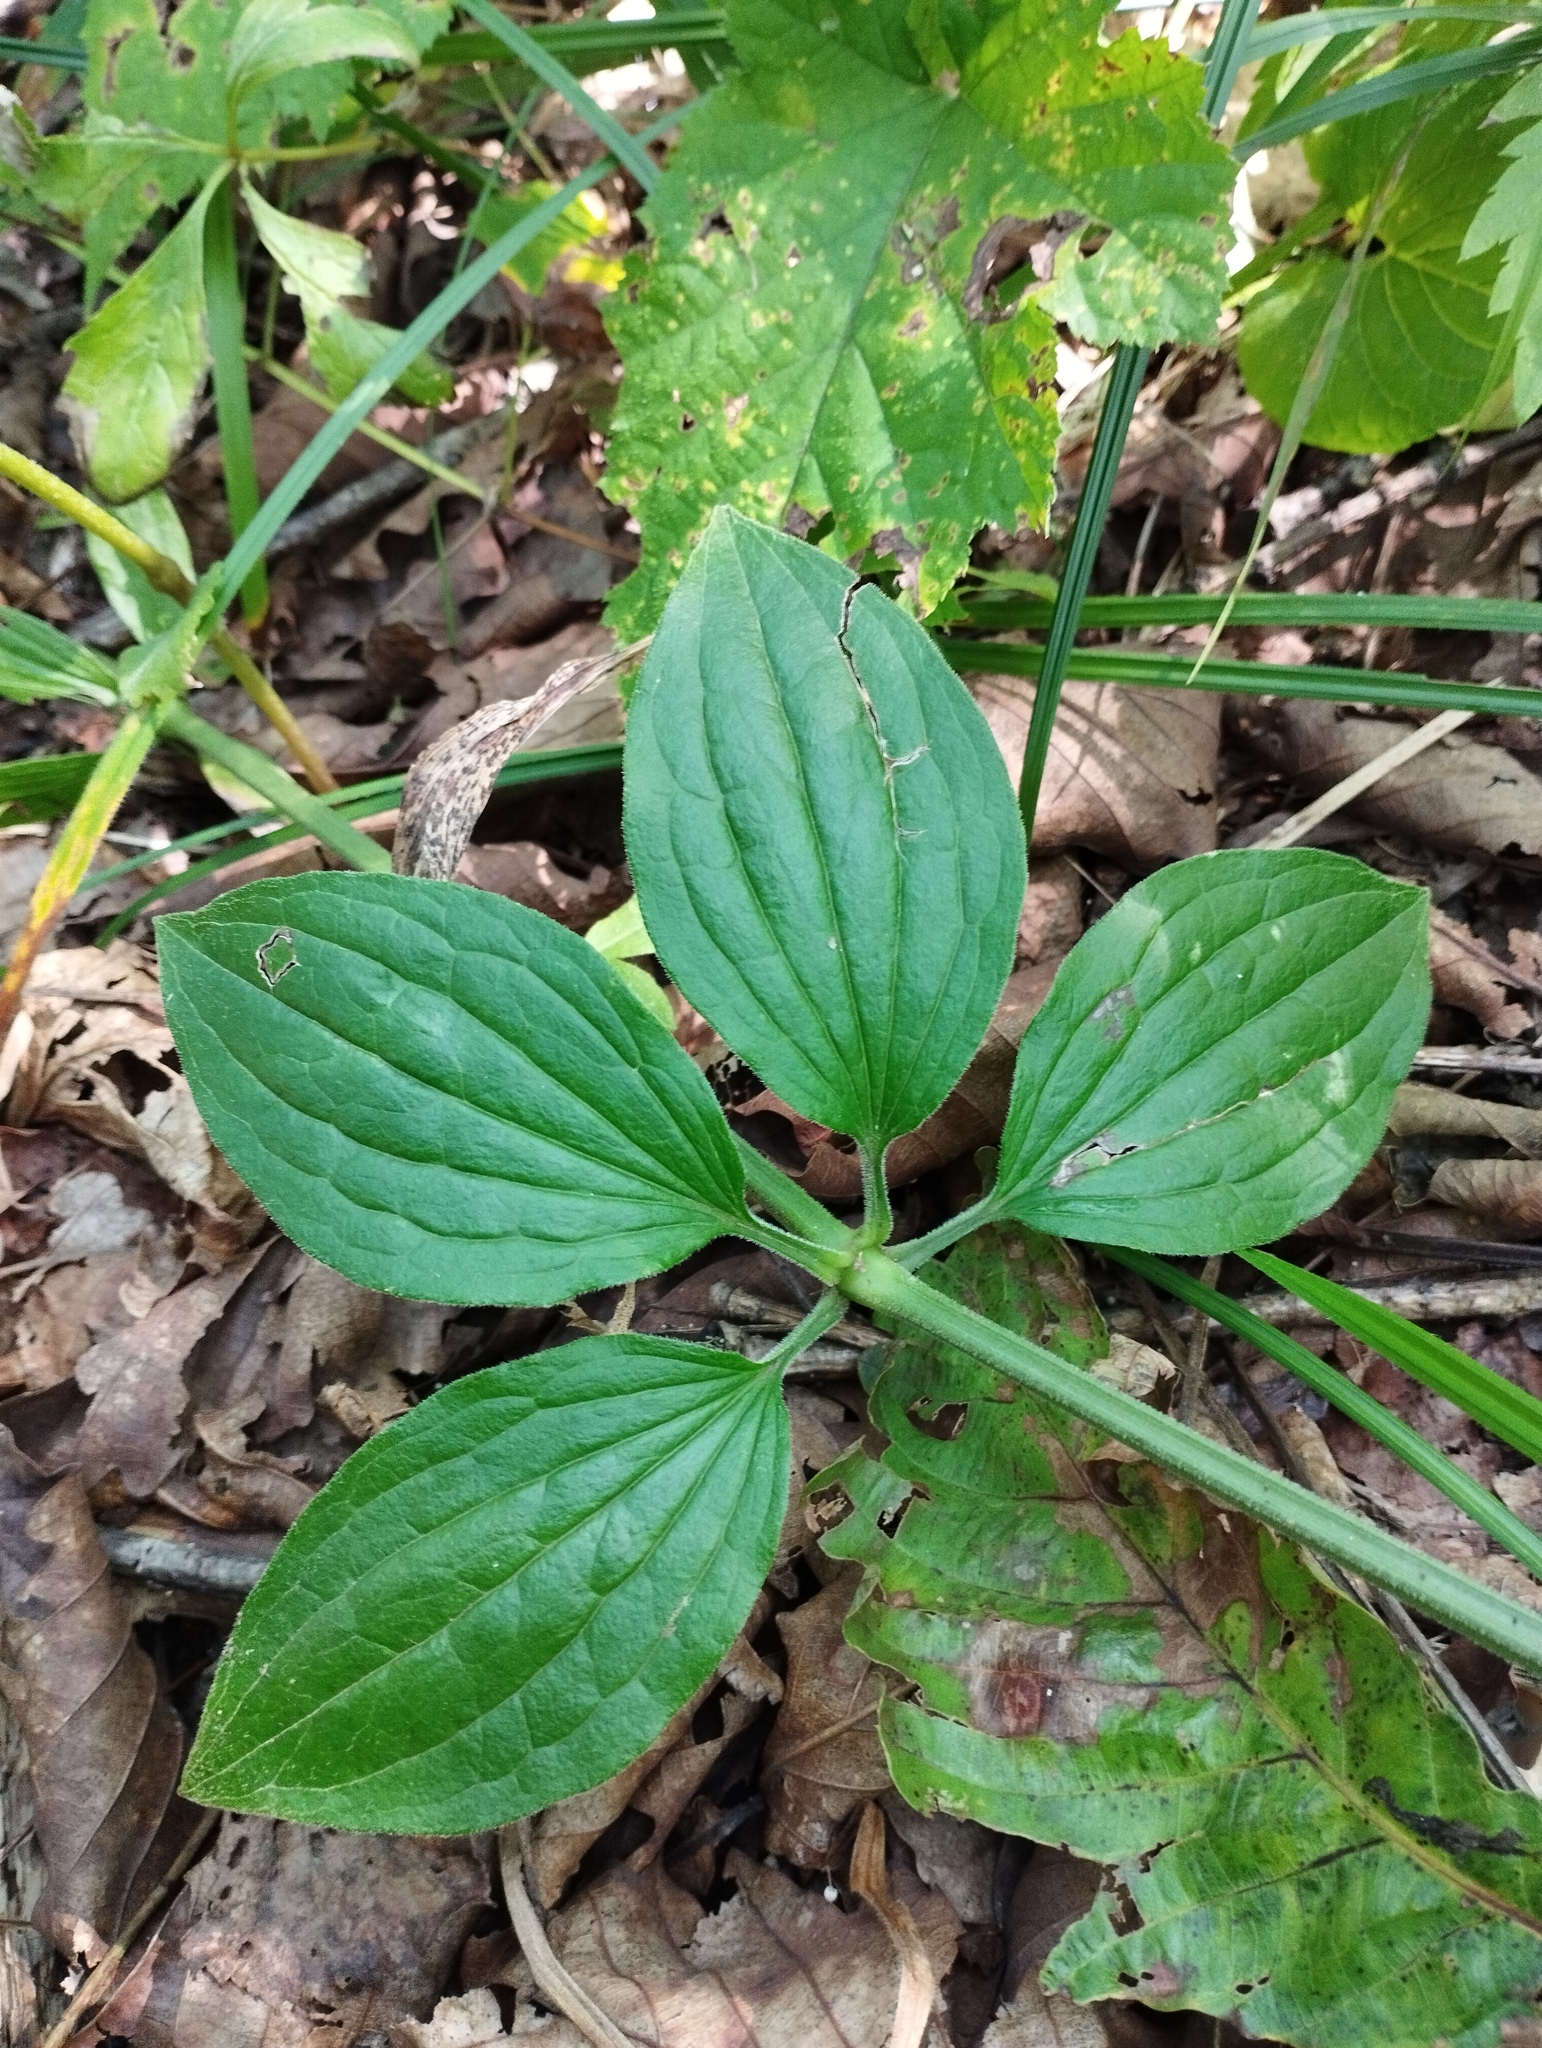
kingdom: Plantae
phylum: Tracheophyta
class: Magnoliopsida
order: Gentianales
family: Rubiaceae
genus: Rubia
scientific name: Rubia chinensis
